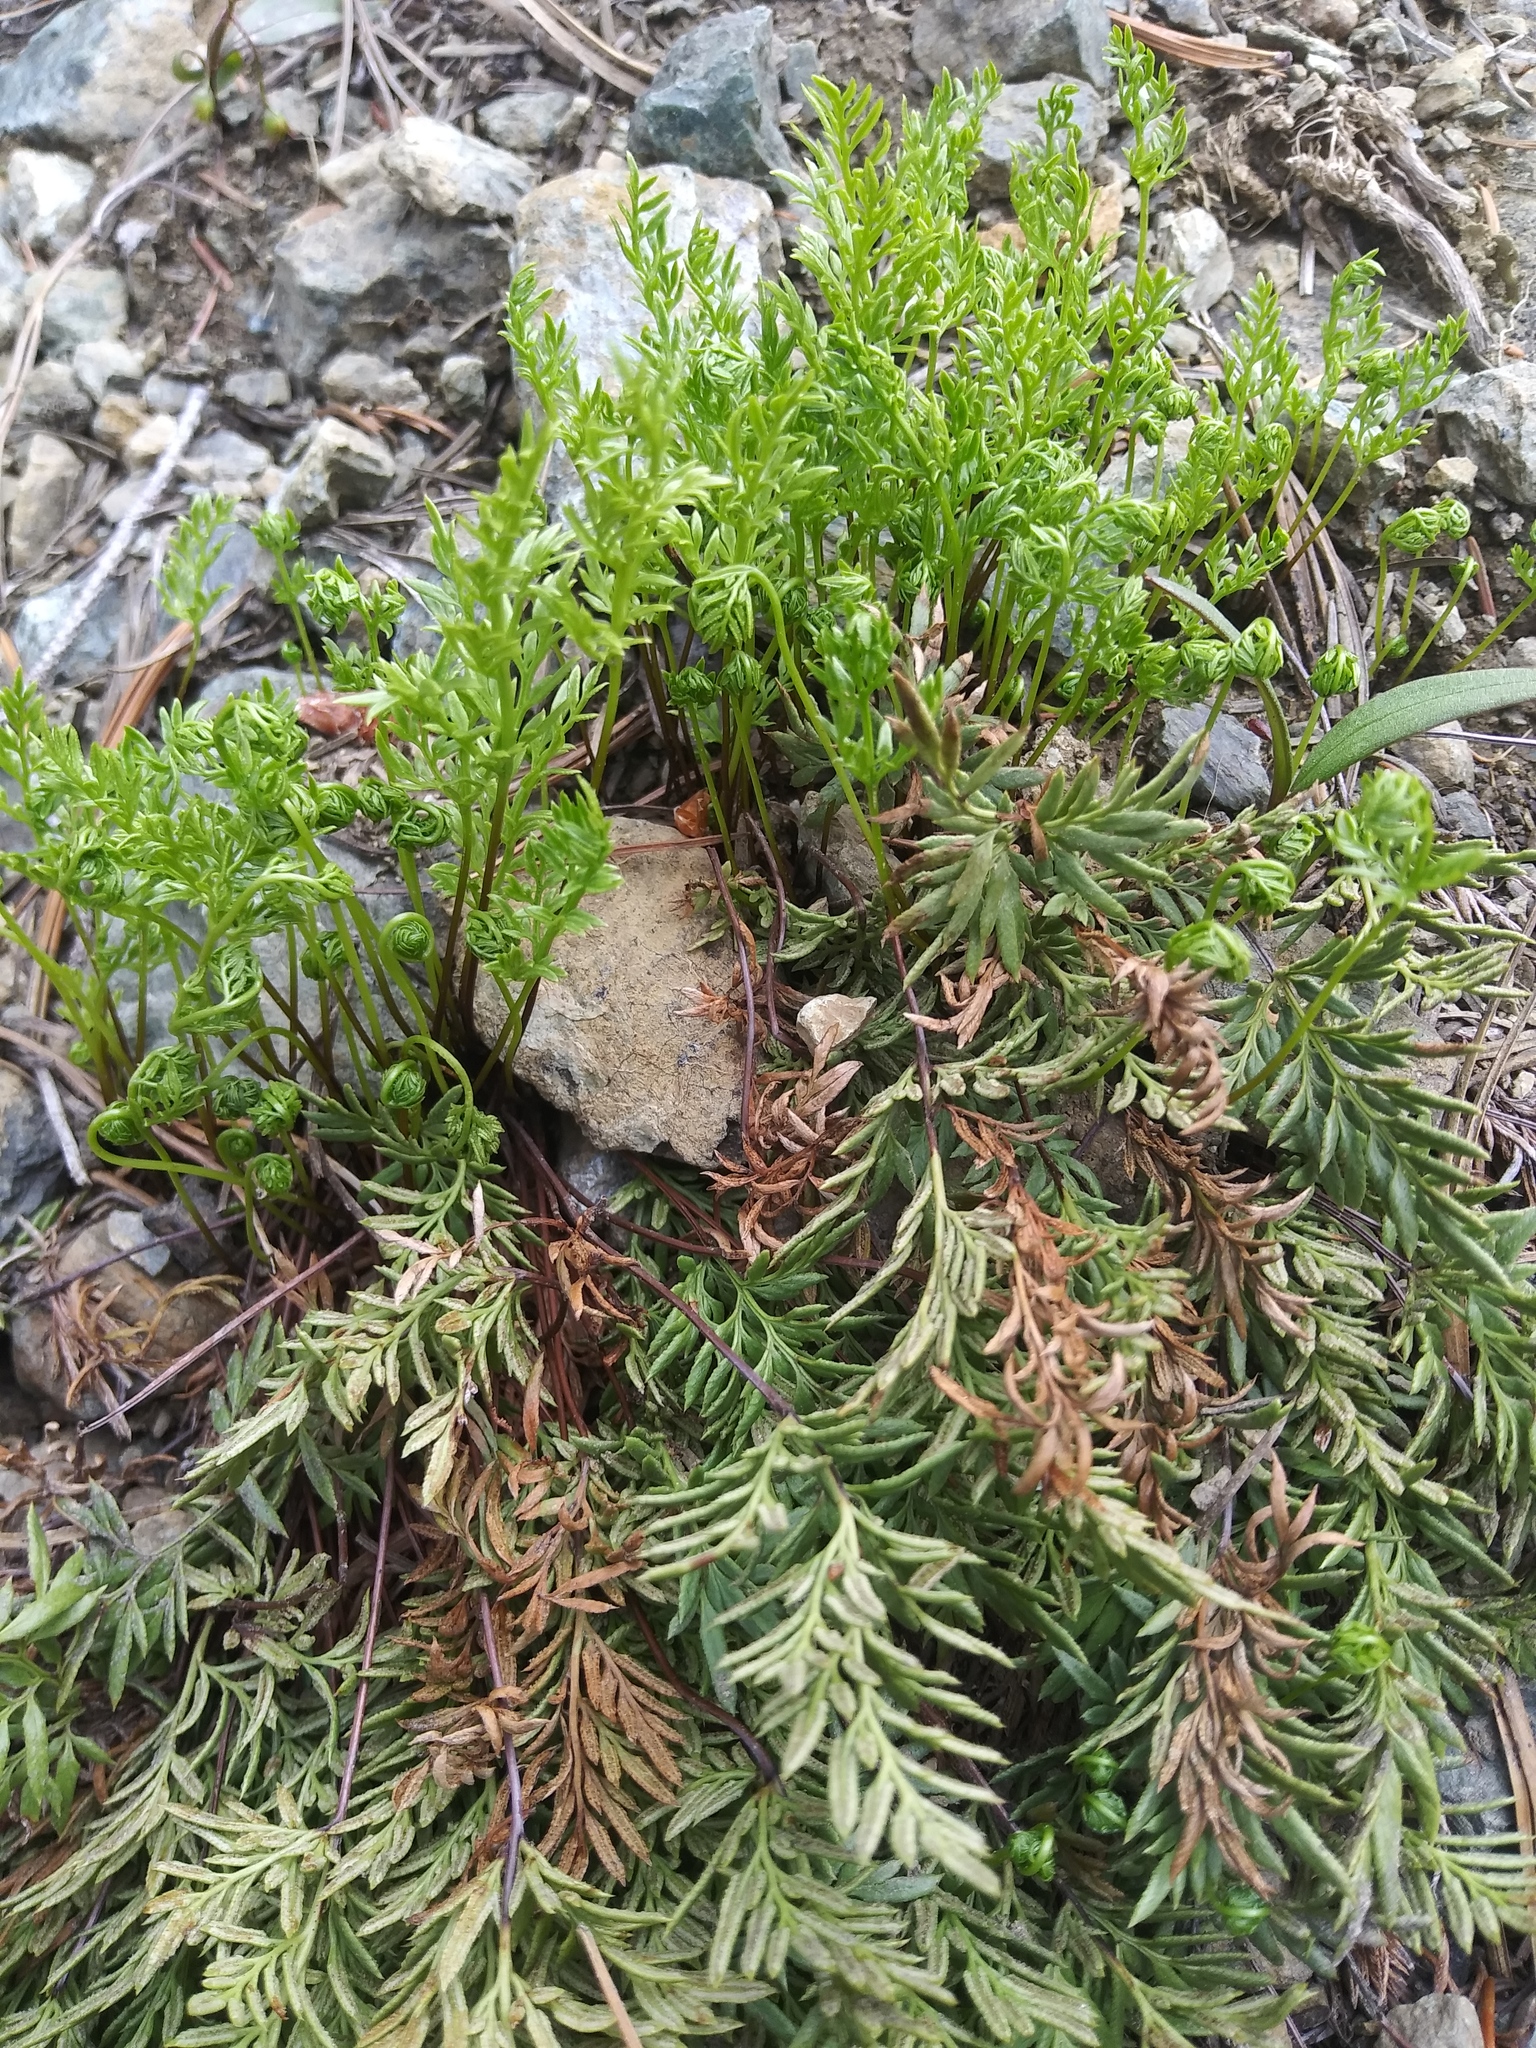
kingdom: Plantae
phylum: Tracheophyta
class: Polypodiopsida
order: Polypodiales
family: Pteridaceae
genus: Aspidotis
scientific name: Aspidotis densa
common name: Indian's dream
